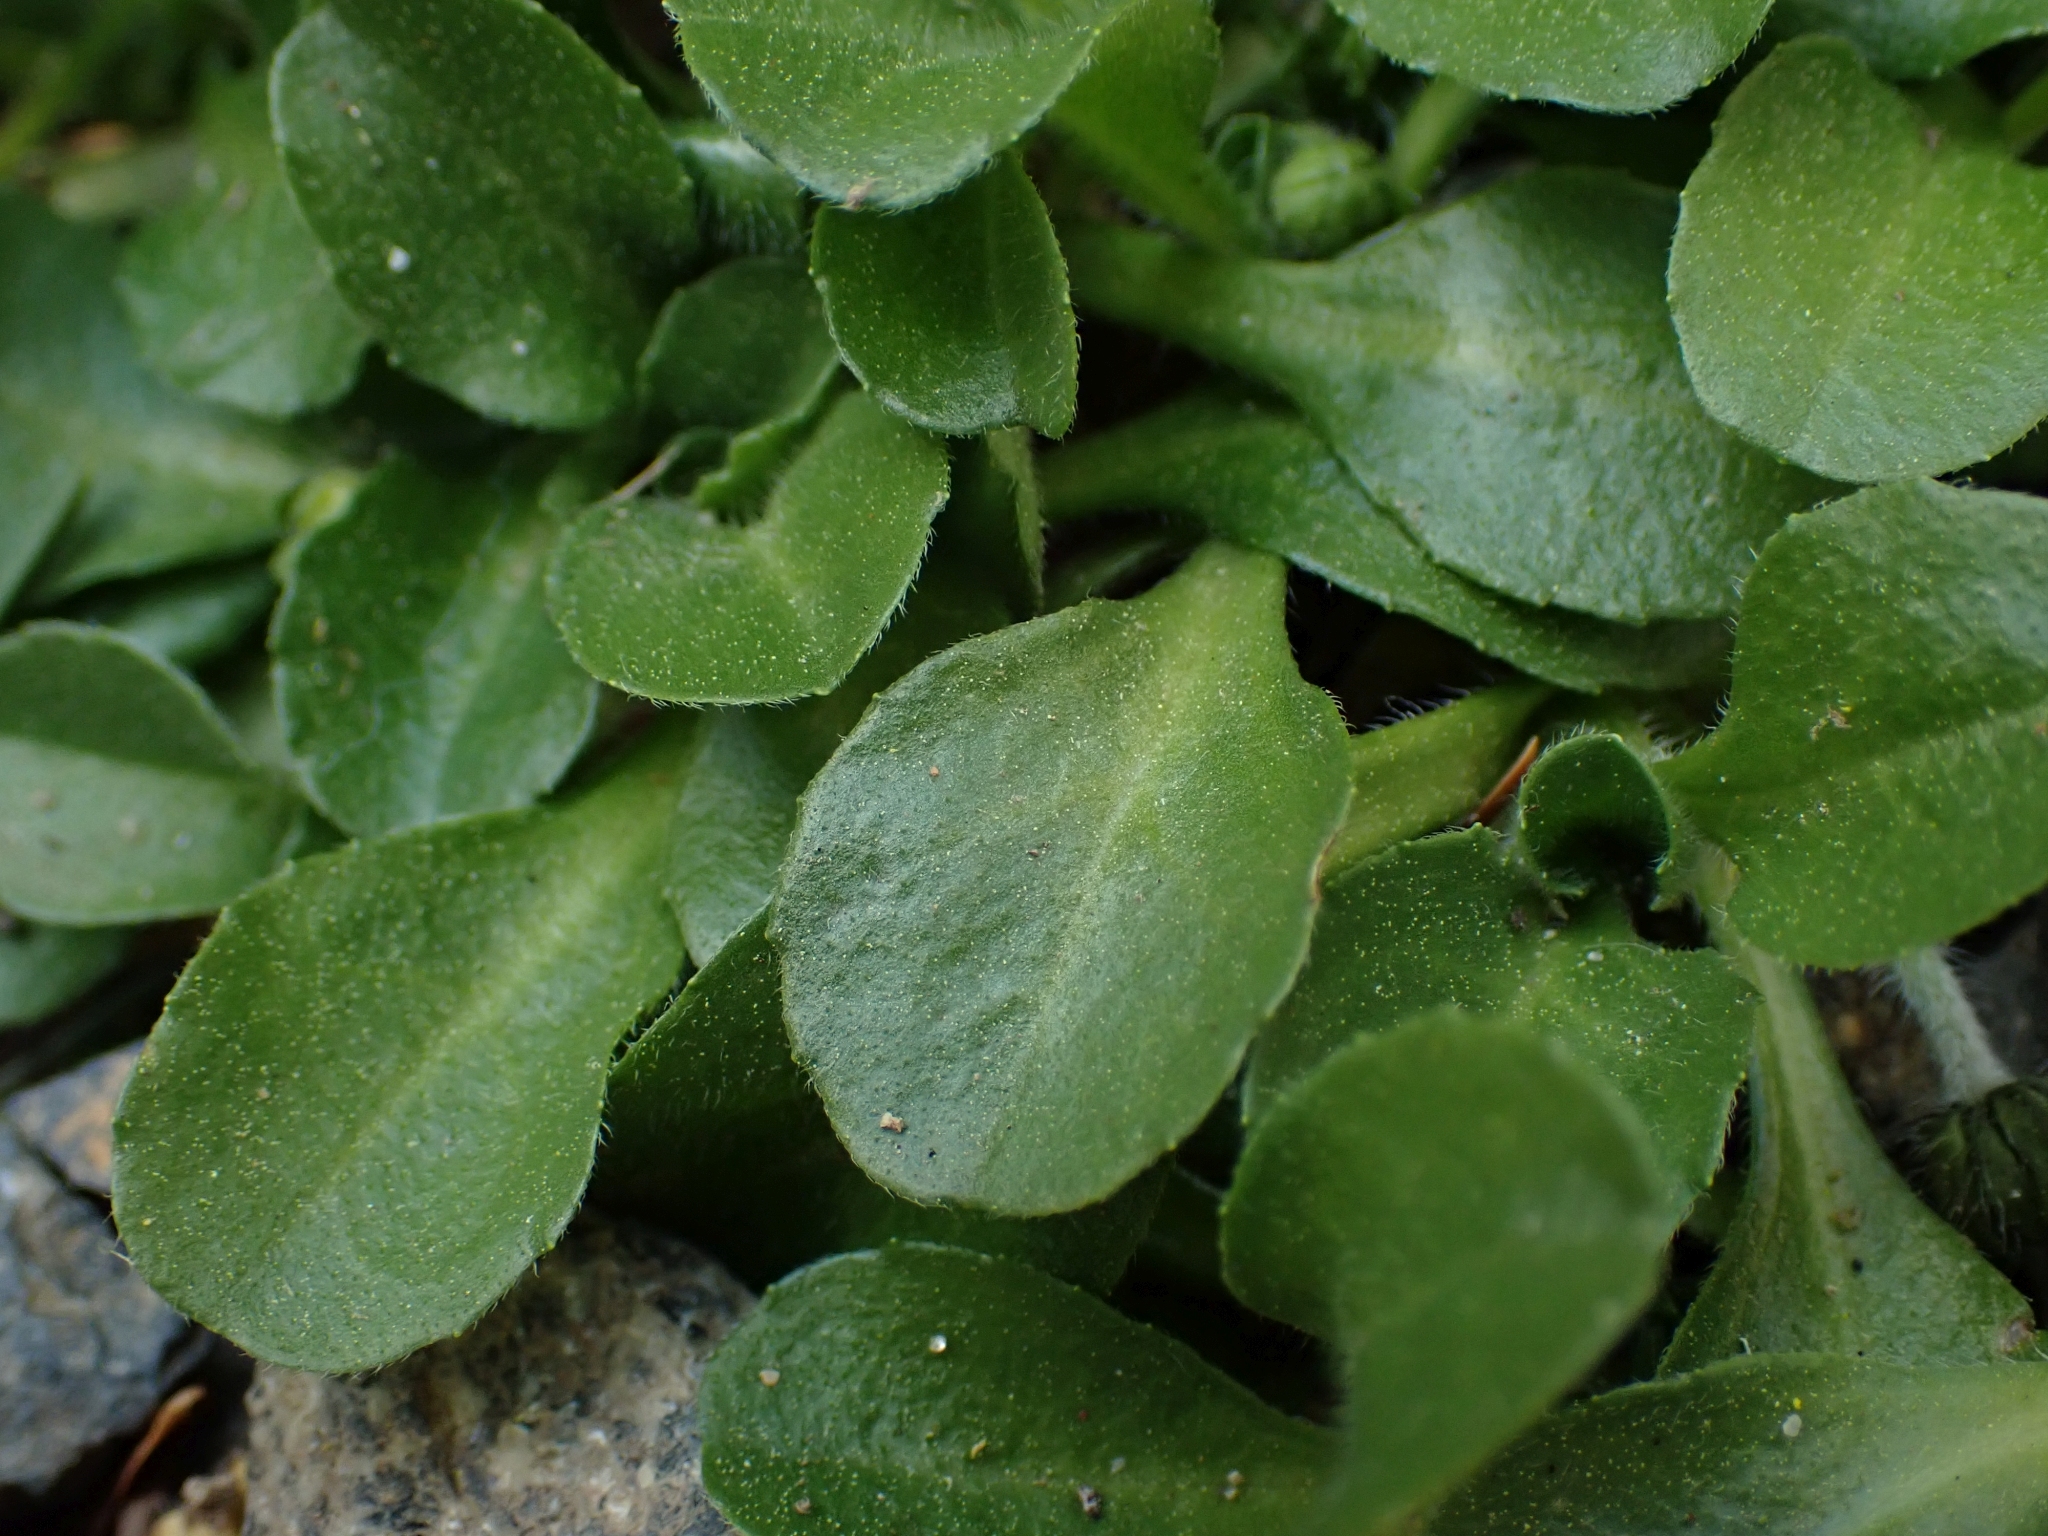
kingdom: Plantae
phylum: Tracheophyta
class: Magnoliopsida
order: Asterales
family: Asteraceae
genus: Bellis
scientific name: Bellis perennis
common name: Lawndaisy
